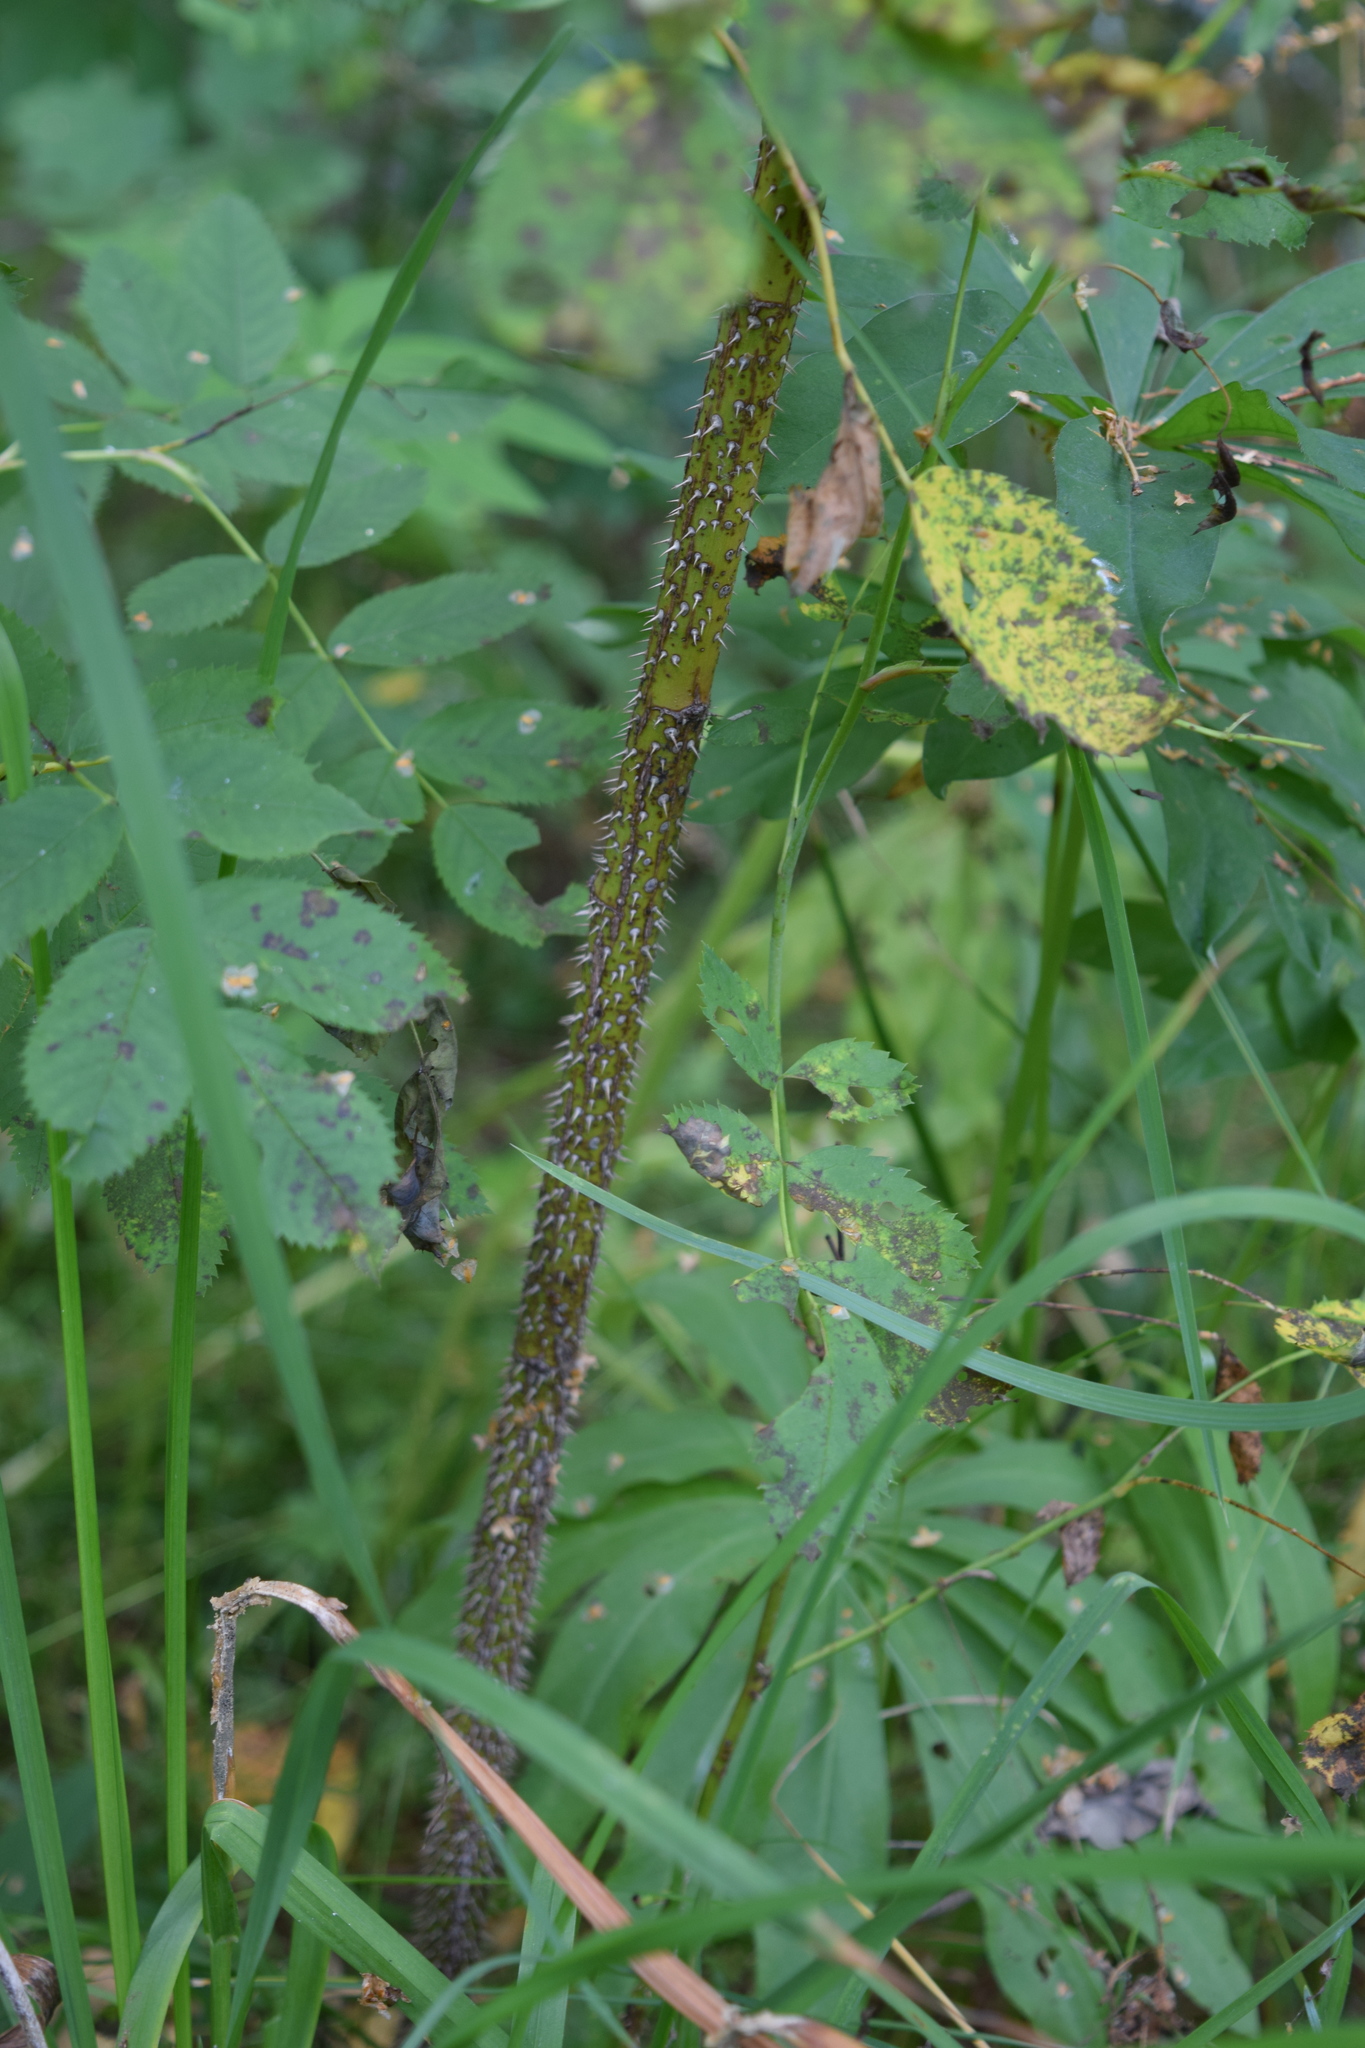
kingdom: Plantae
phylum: Tracheophyta
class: Magnoliopsida
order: Rosales
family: Rosaceae
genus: Rosa
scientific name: Rosa
